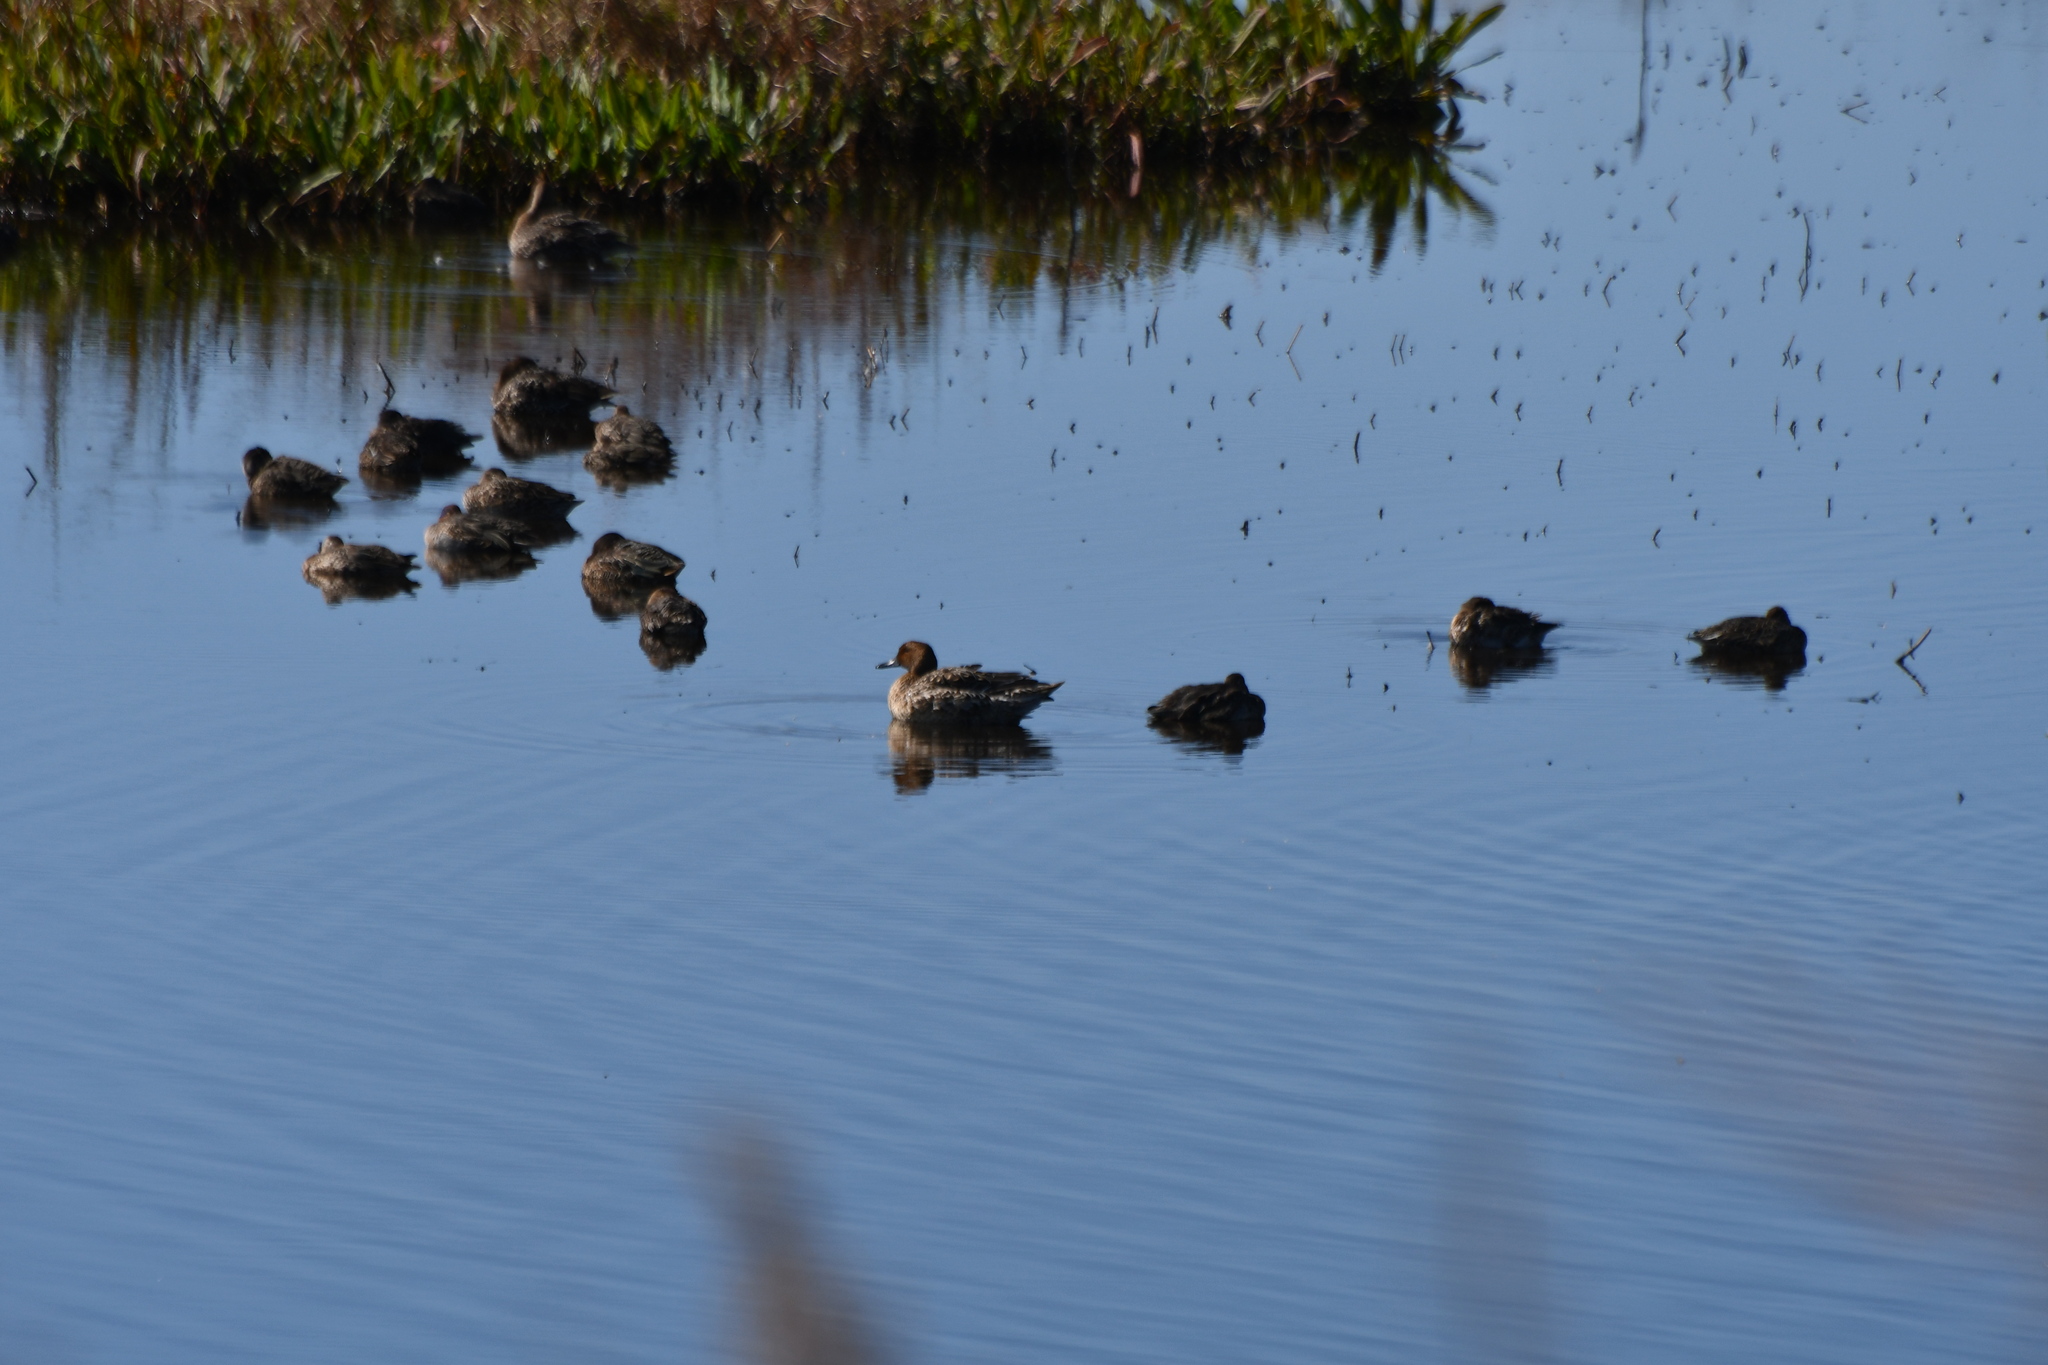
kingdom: Animalia
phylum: Chordata
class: Aves
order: Anseriformes
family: Anatidae
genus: Anas
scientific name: Anas acuta
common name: Northern pintail
